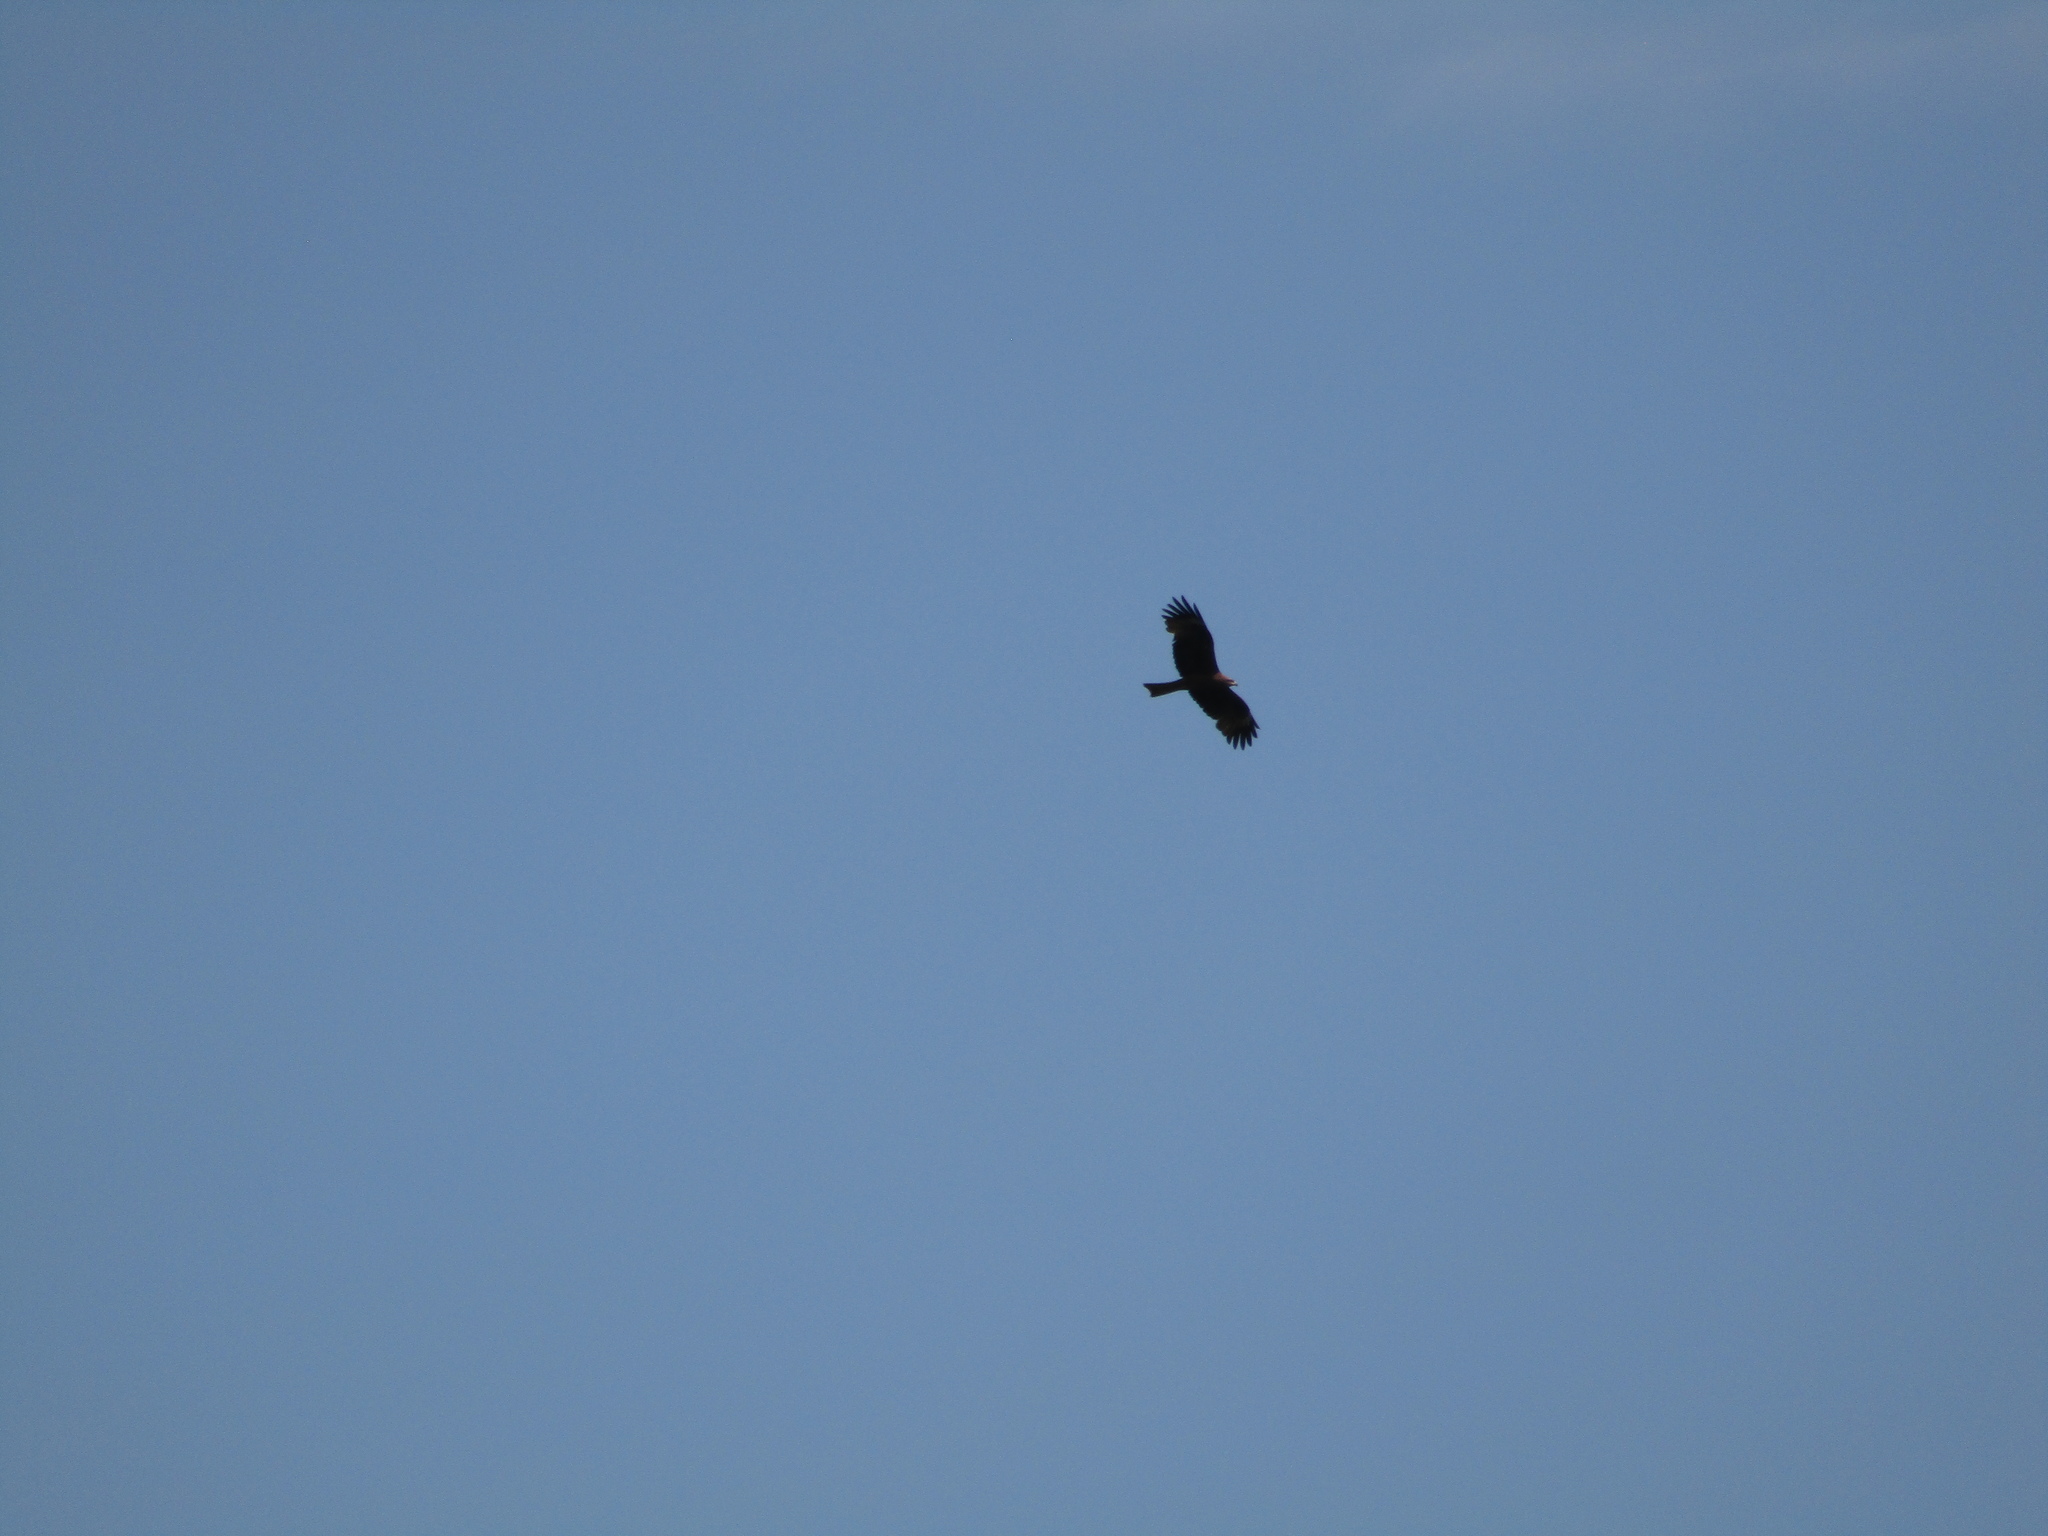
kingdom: Animalia
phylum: Chordata
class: Aves
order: Accipitriformes
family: Accipitridae
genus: Milvus
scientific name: Milvus migrans
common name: Black kite
